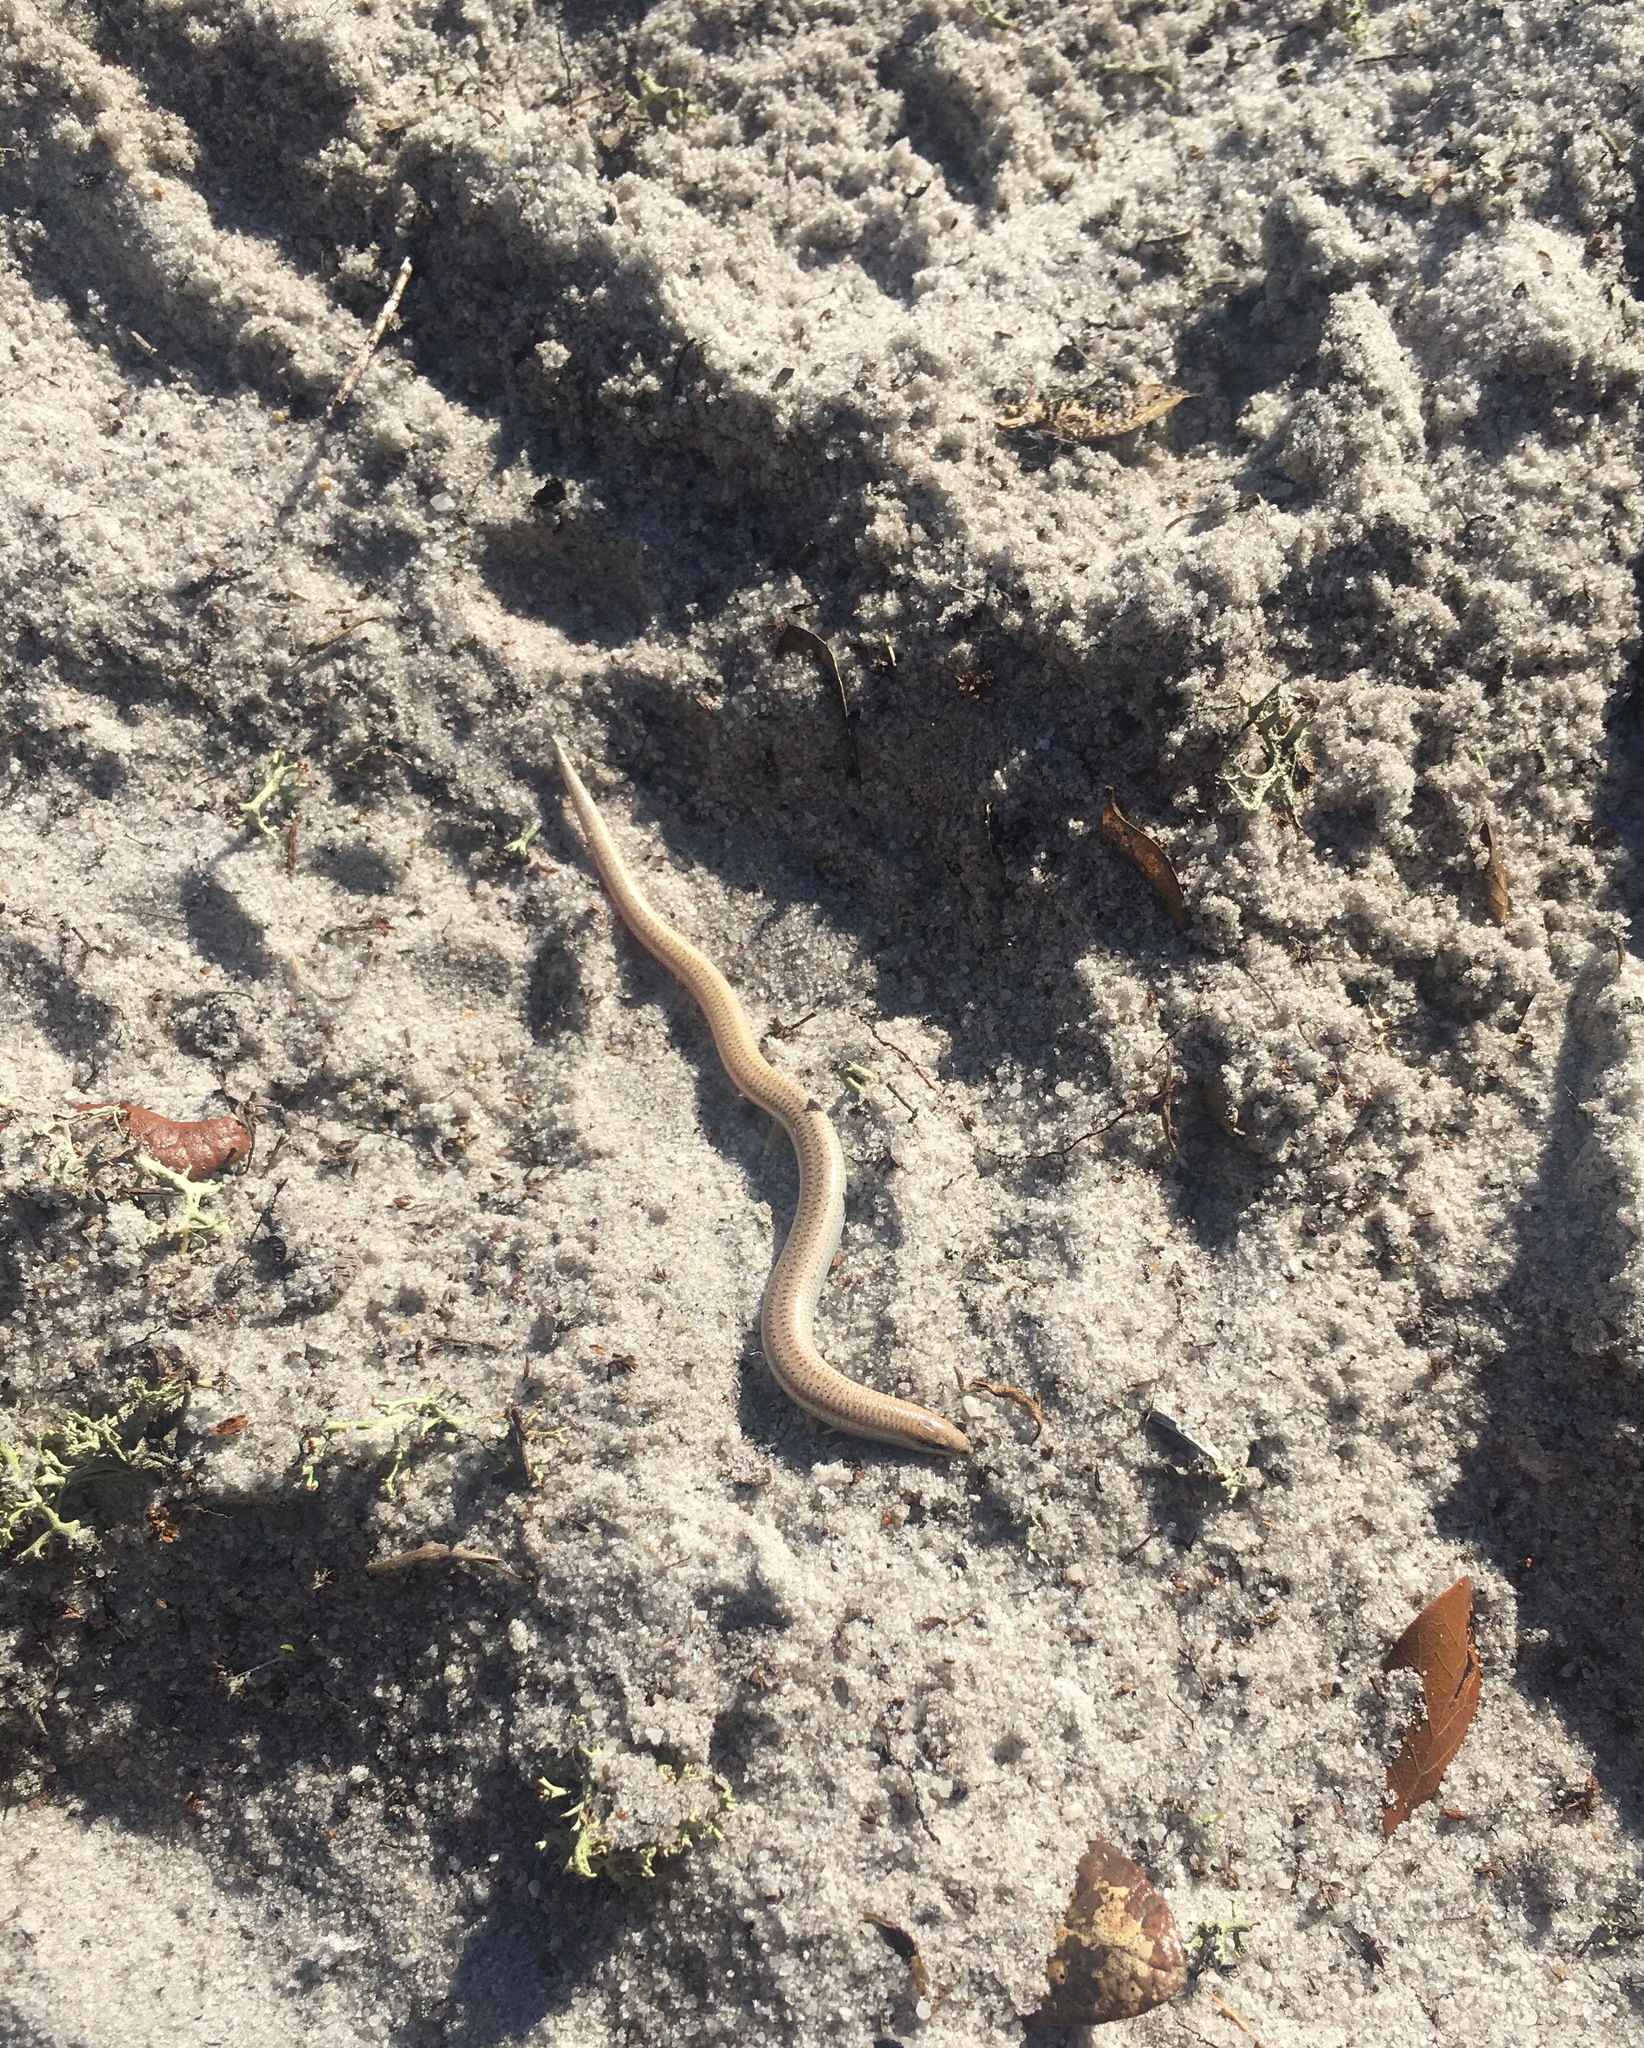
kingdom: Animalia
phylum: Chordata
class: Squamata
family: Scincidae
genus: Plestiodon
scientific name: Plestiodon reynoldsi
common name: Florida sand skink
